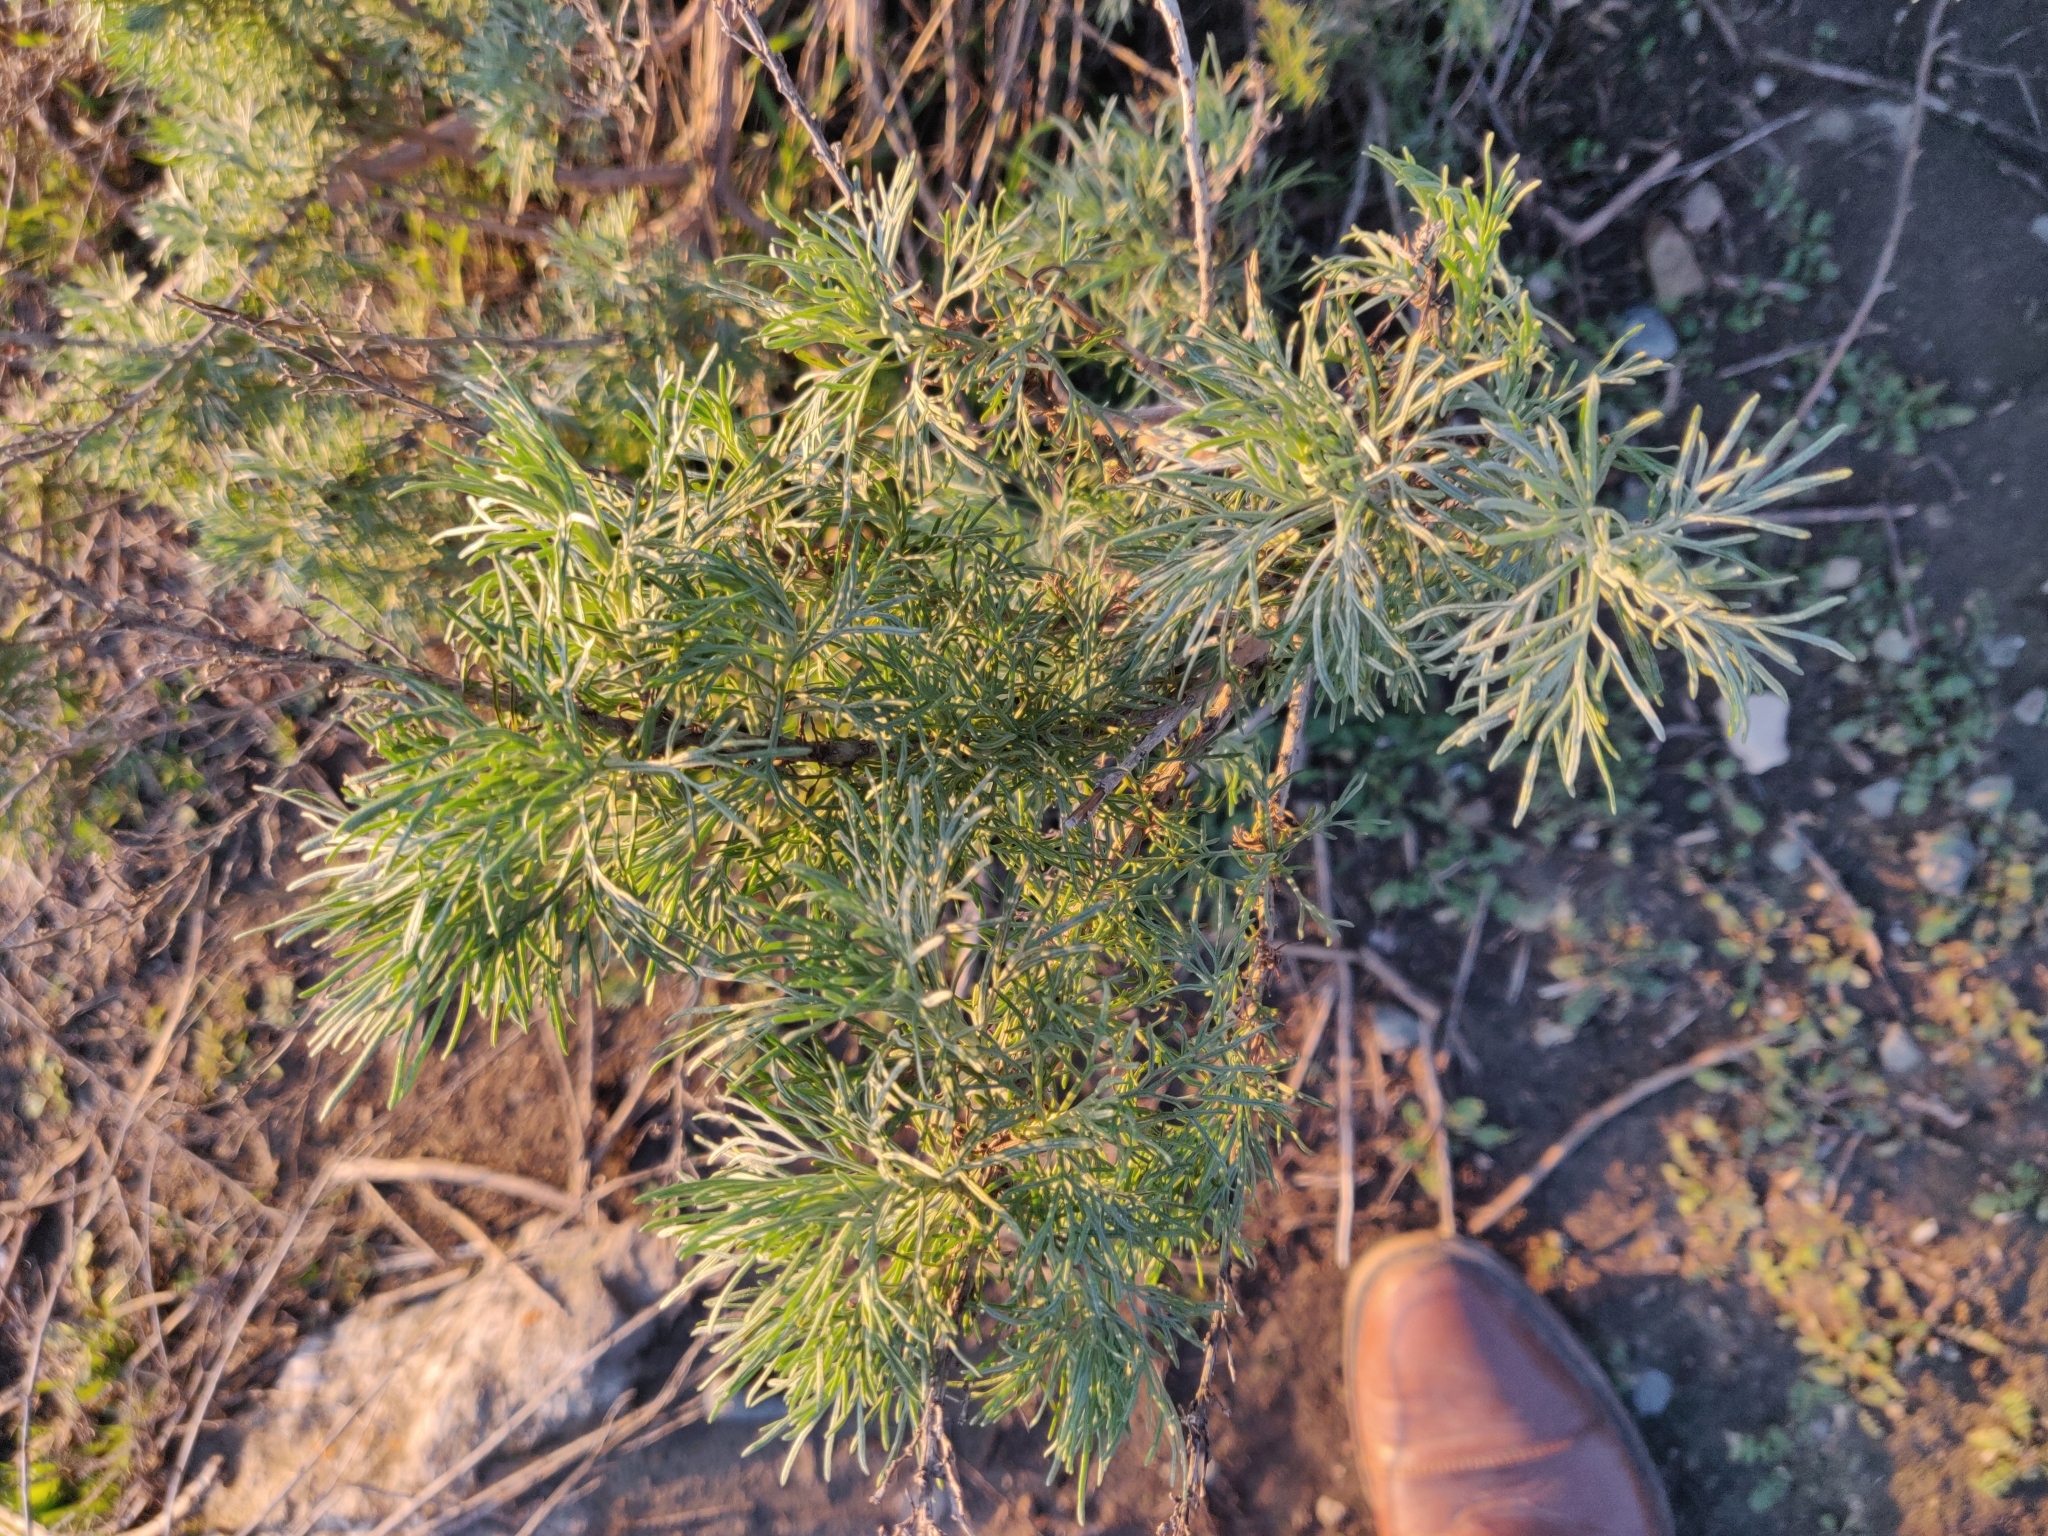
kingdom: Plantae
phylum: Tracheophyta
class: Magnoliopsida
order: Asterales
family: Asteraceae
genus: Artemisia
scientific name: Artemisia californica
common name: California sagebrush
